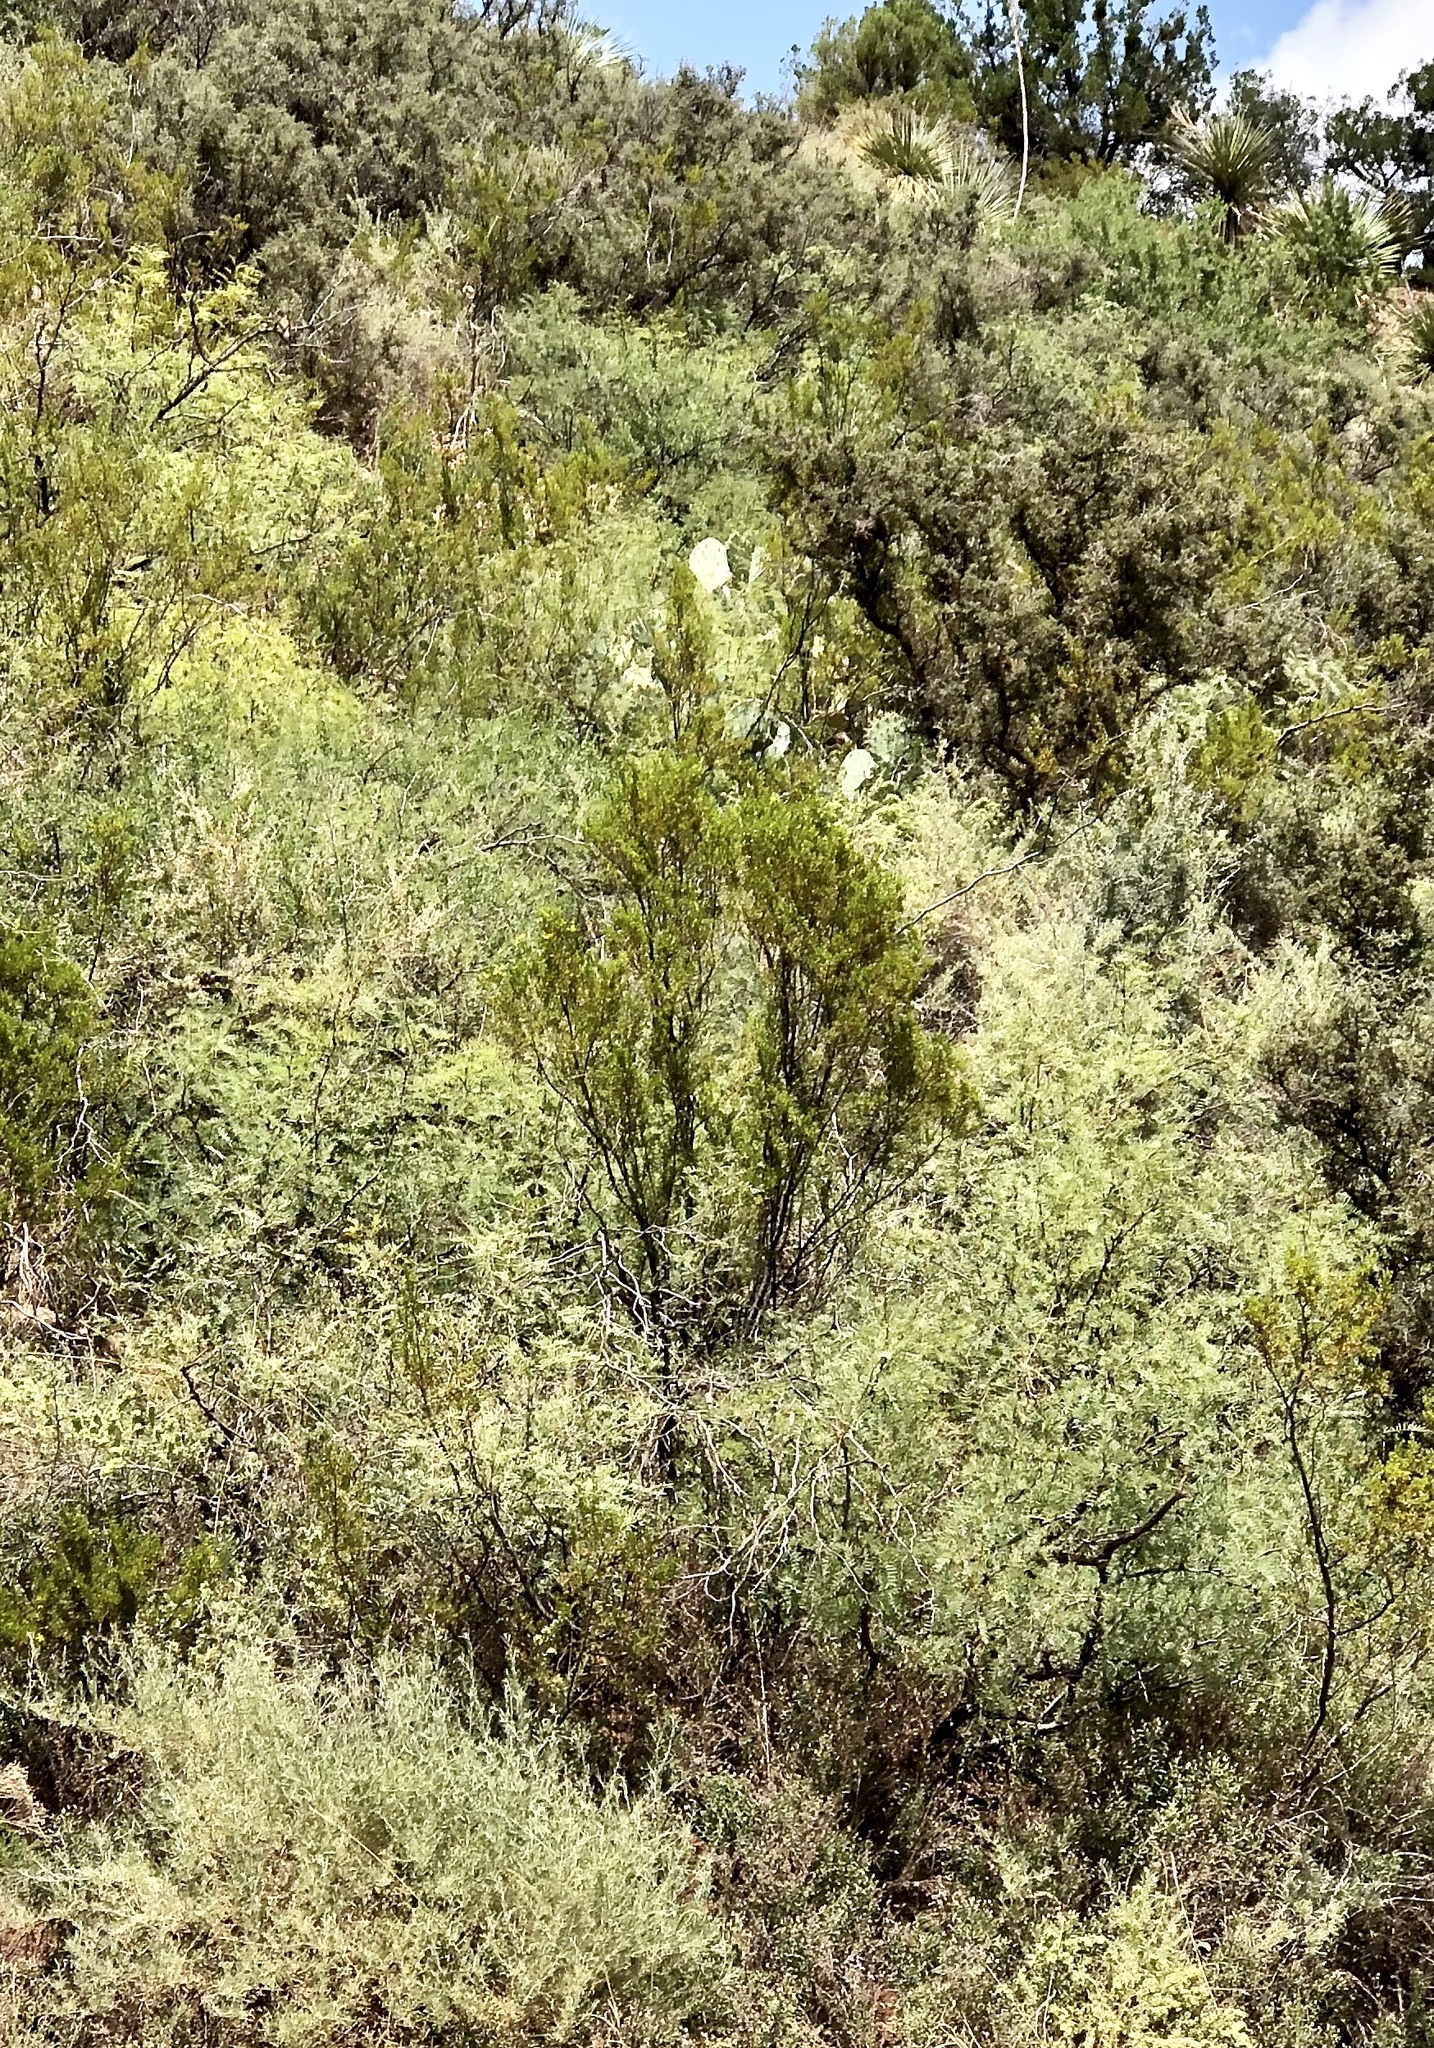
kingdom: Plantae
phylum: Tracheophyta
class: Magnoliopsida
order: Zygophyllales
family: Zygophyllaceae
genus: Larrea
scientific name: Larrea tridentata
